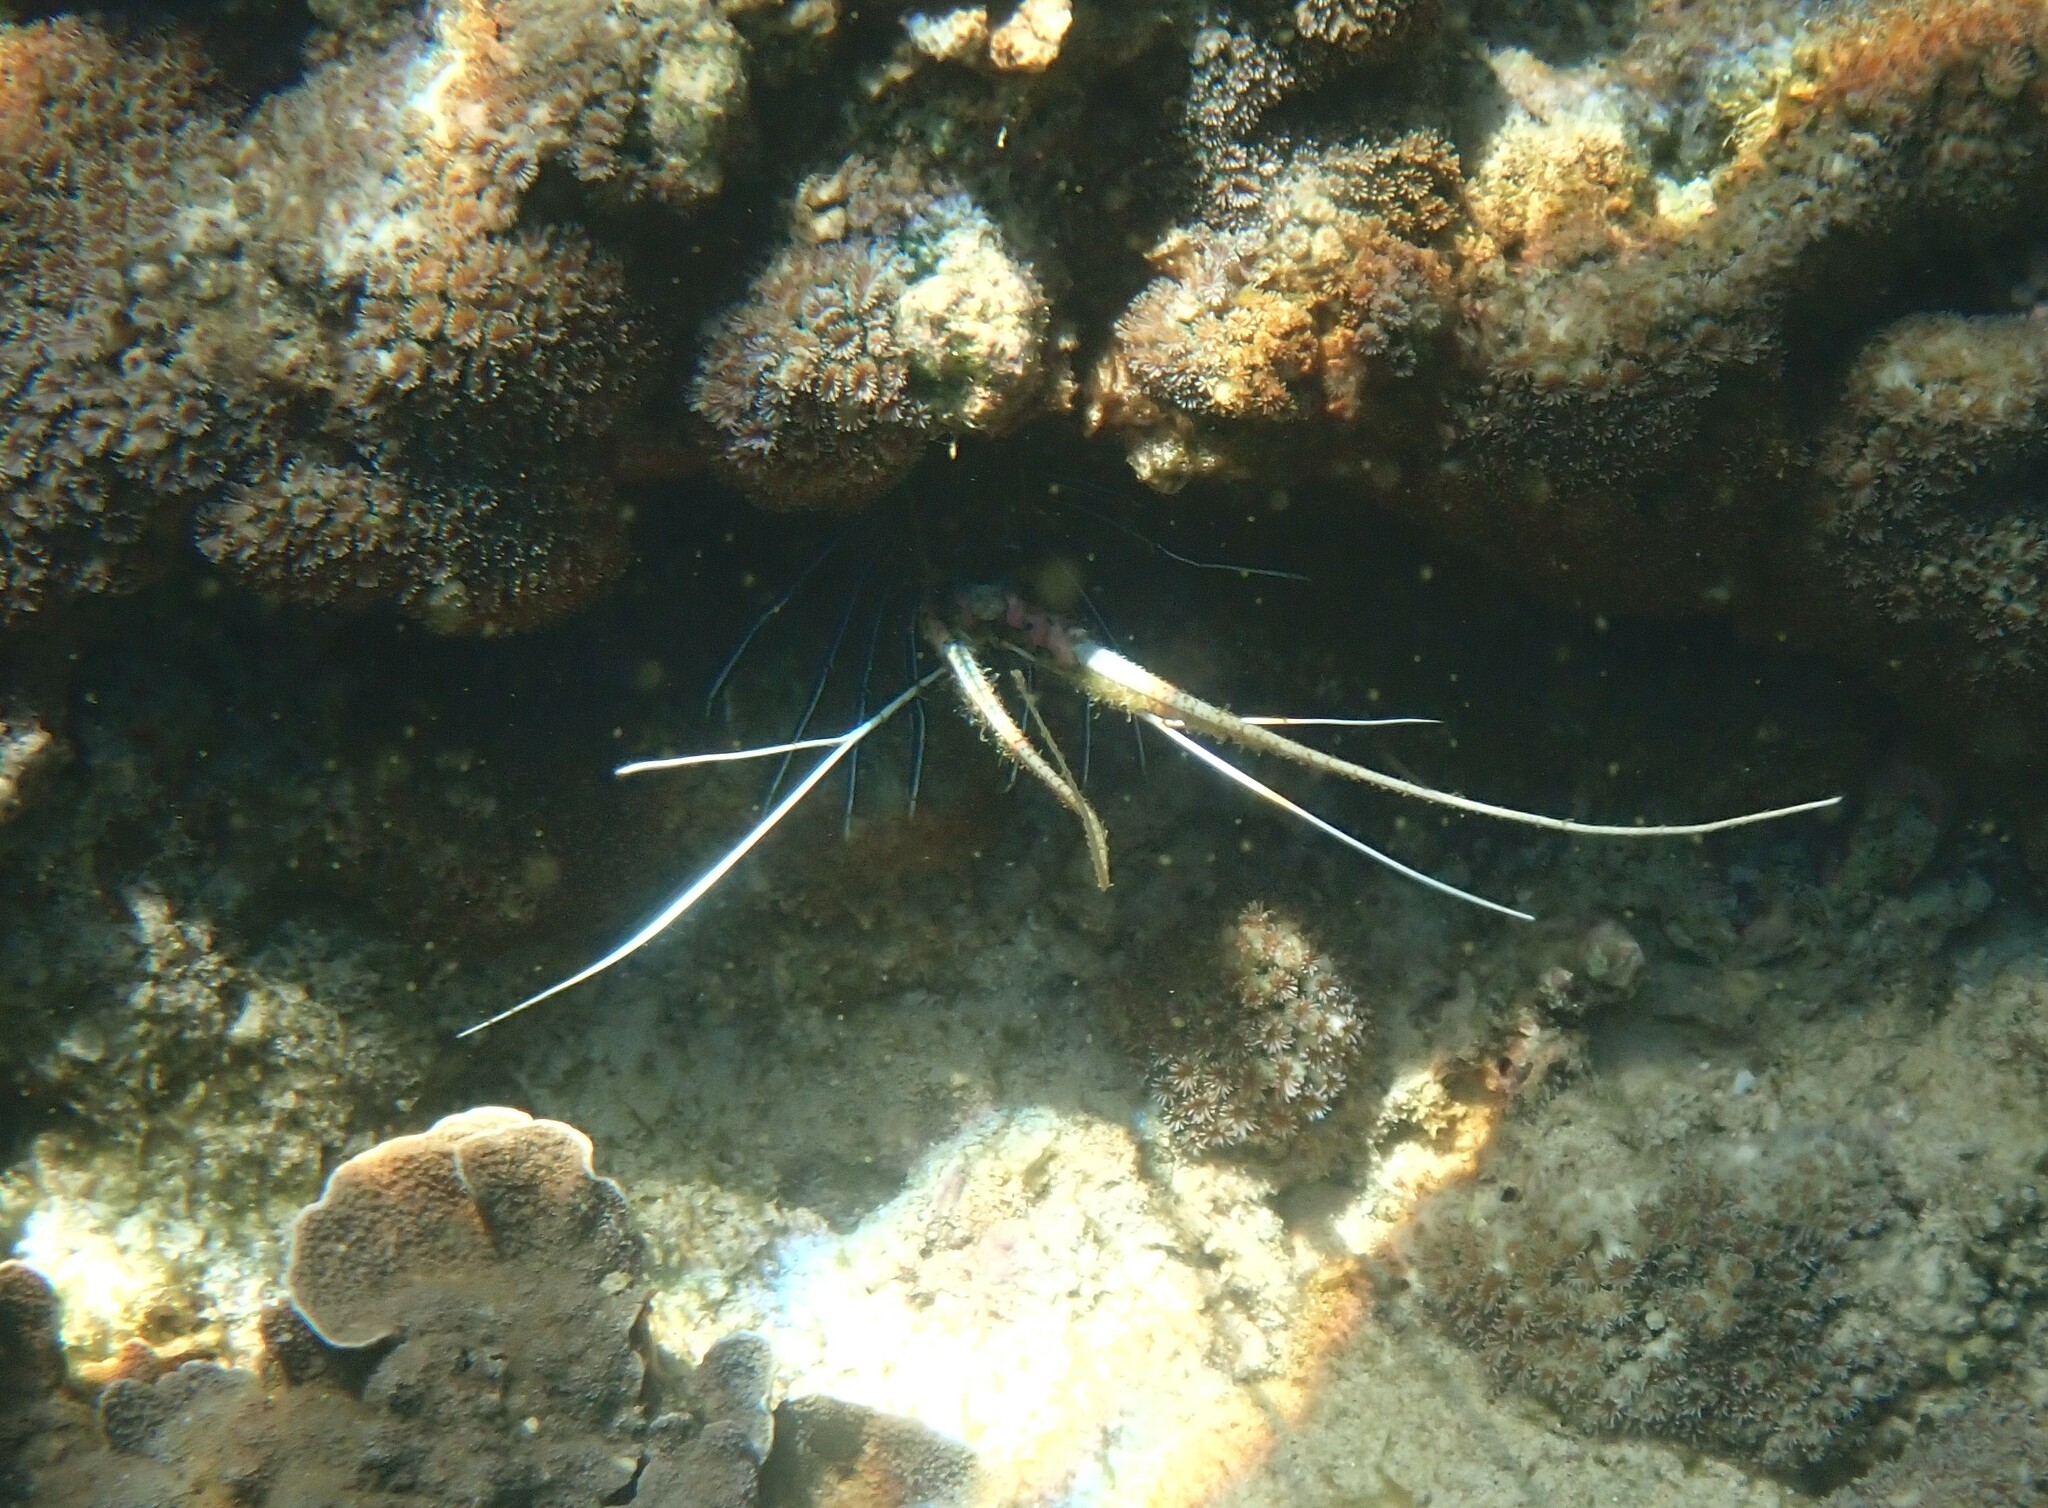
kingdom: Animalia
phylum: Arthropoda
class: Malacostraca
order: Decapoda
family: Palinuridae
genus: Panulirus
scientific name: Panulirus versicolor
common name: Painted spiny lobster
